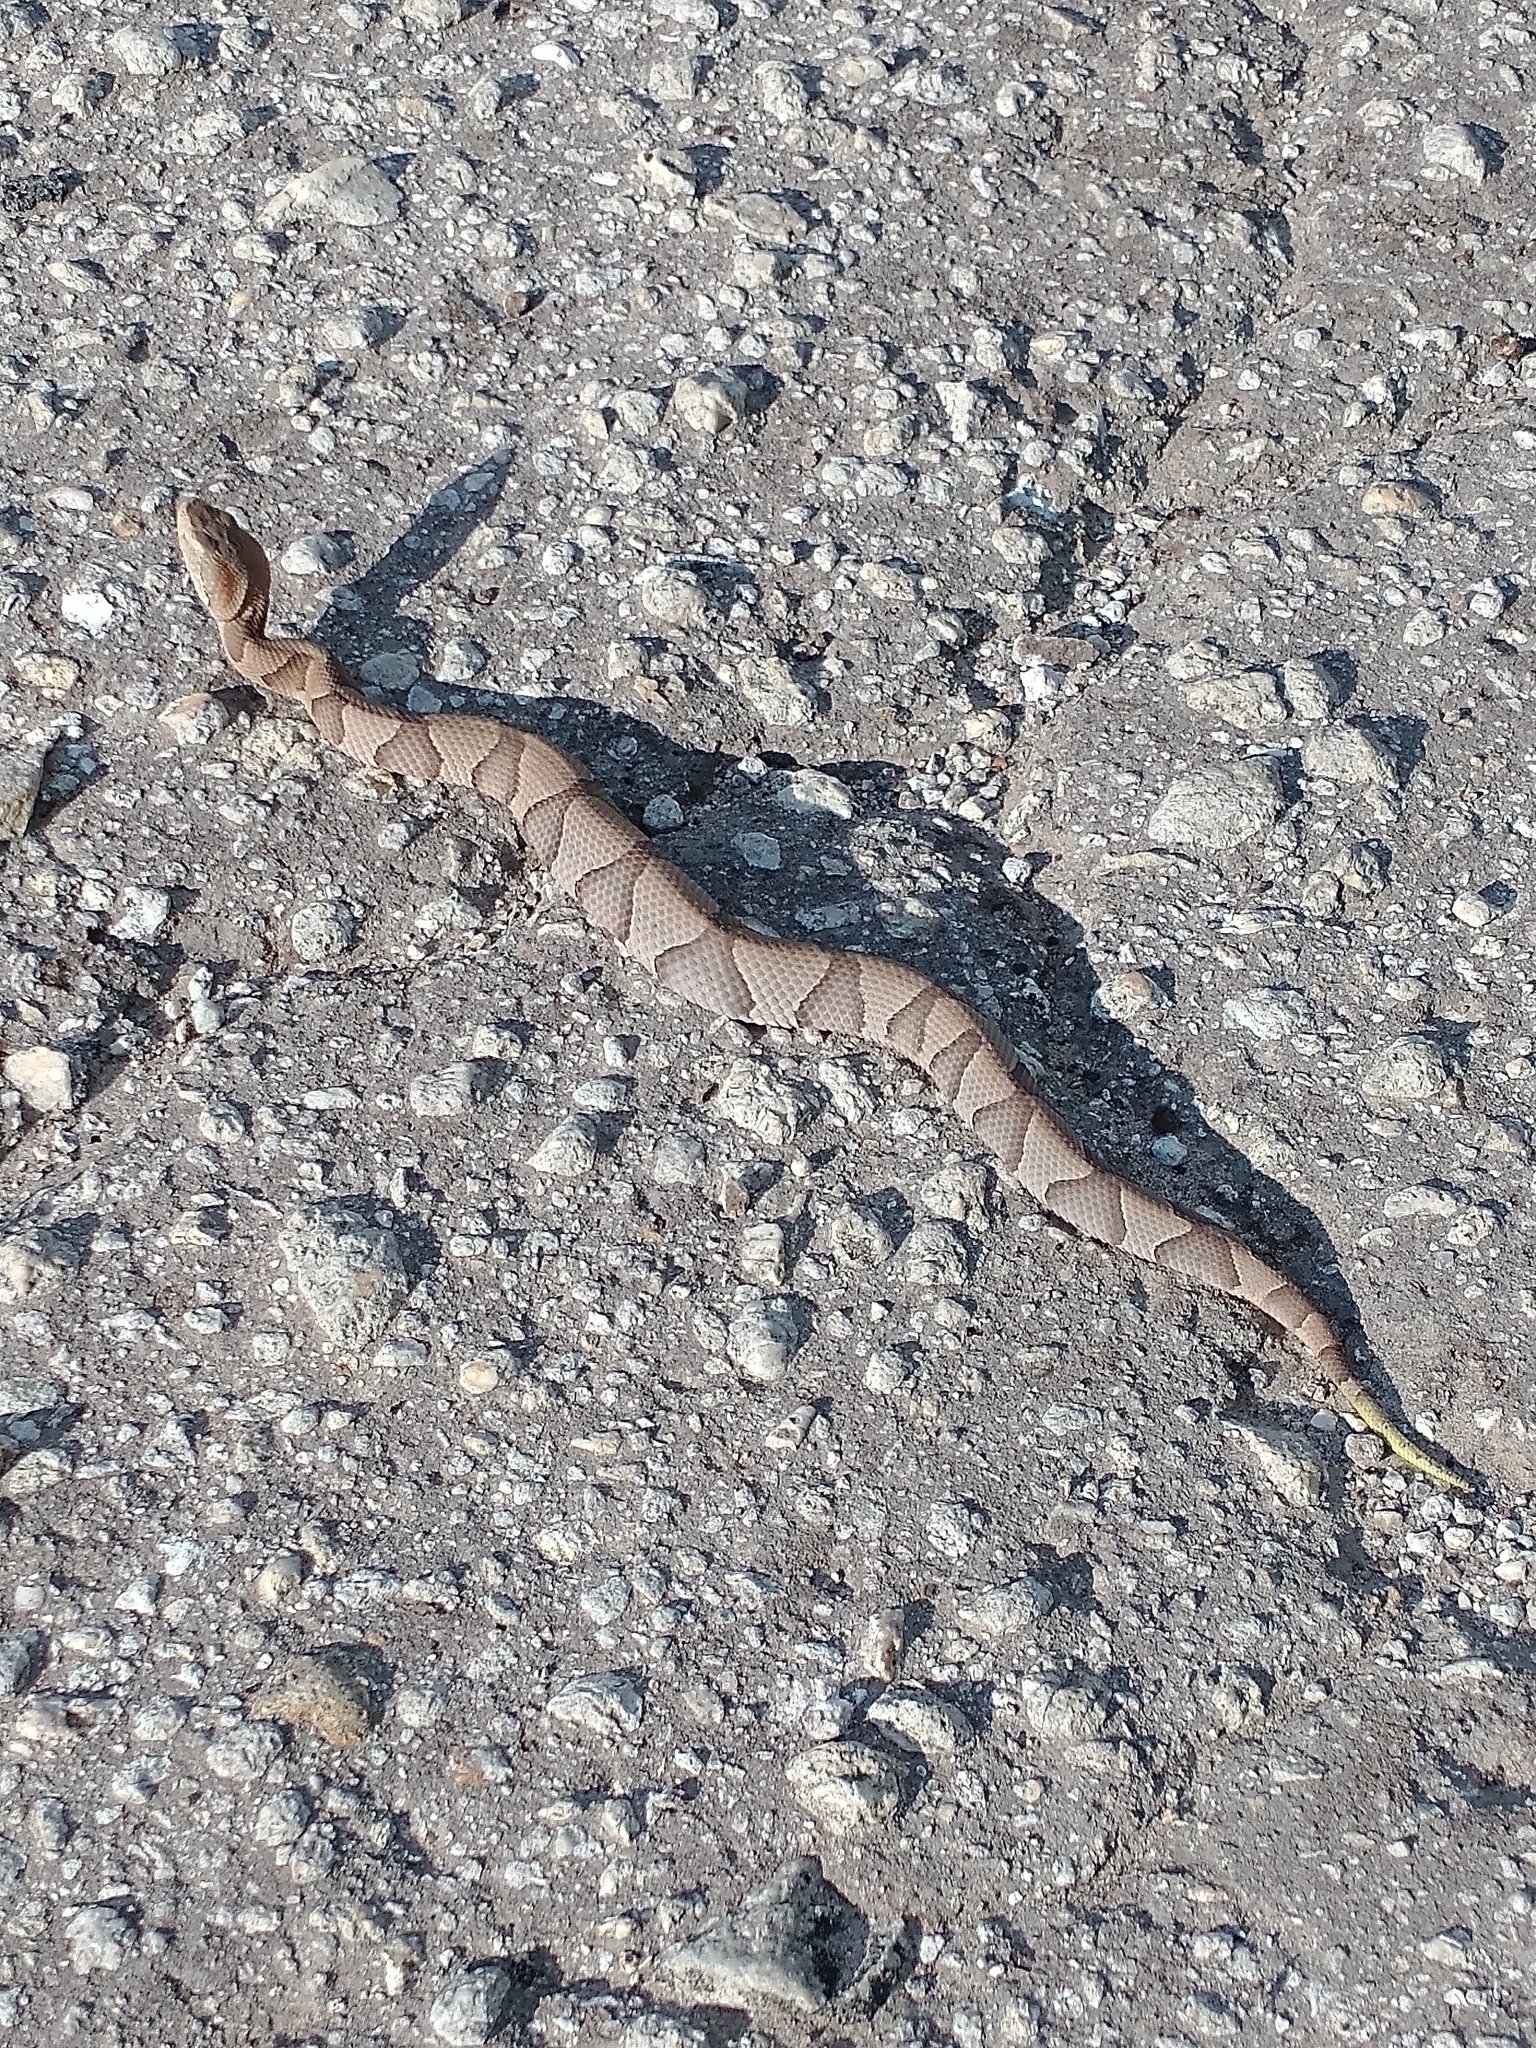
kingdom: Animalia
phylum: Chordata
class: Squamata
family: Viperidae
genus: Agkistrodon
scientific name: Agkistrodon contortrix
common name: Northern copperhead
